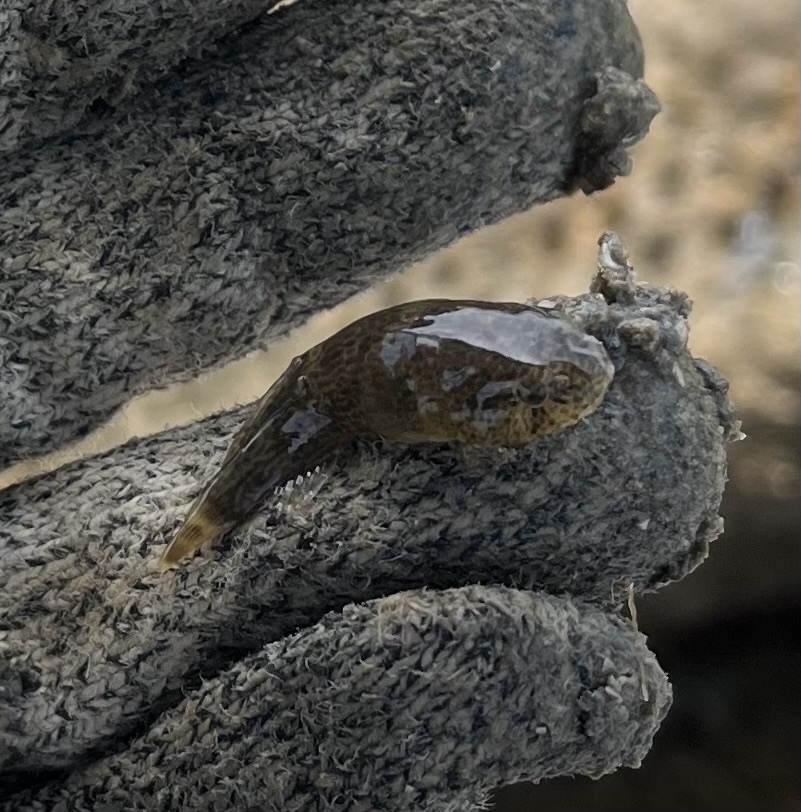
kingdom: Animalia
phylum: Chordata
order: Gobiesociformes
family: Gobiesocidae
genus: Gobiesox
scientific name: Gobiesox strumosus
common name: Skilletfish
